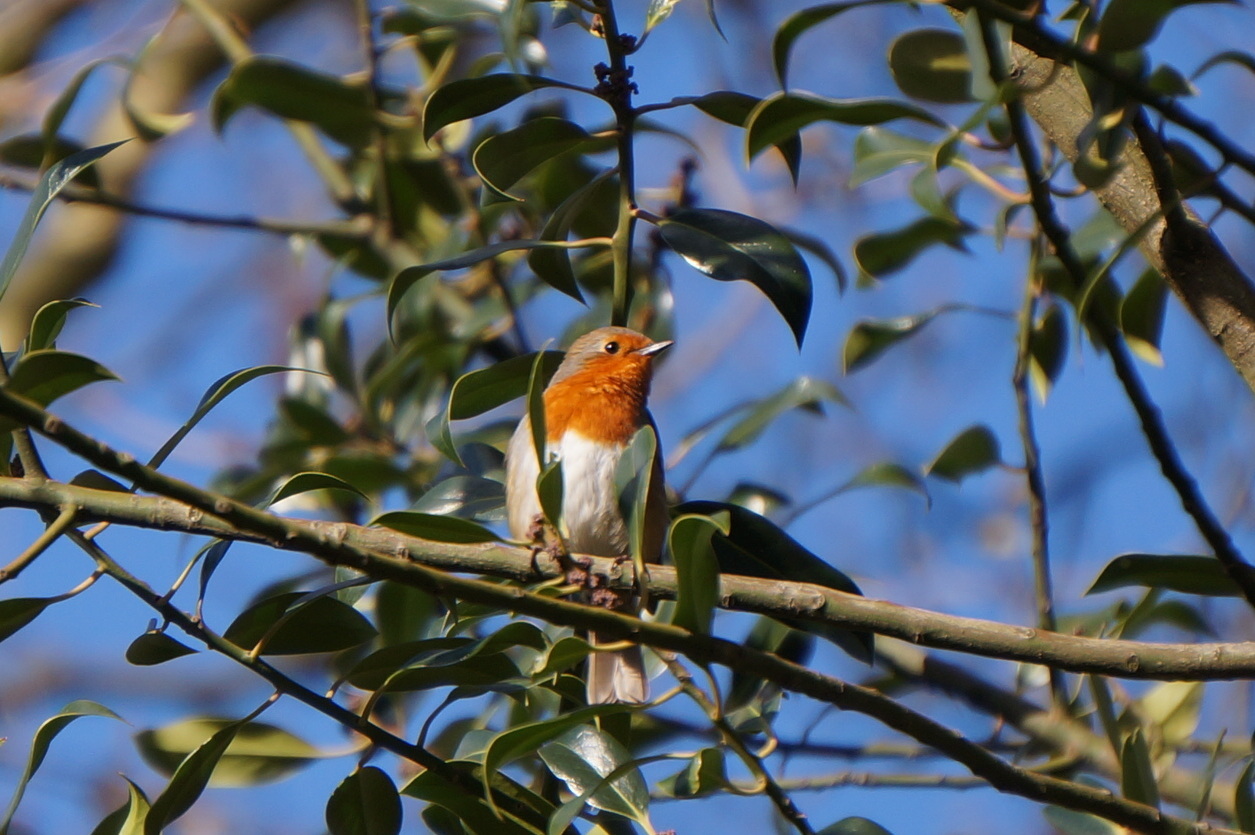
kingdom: Animalia
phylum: Chordata
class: Aves
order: Passeriformes
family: Muscicapidae
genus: Erithacus
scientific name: Erithacus rubecula
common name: European robin
